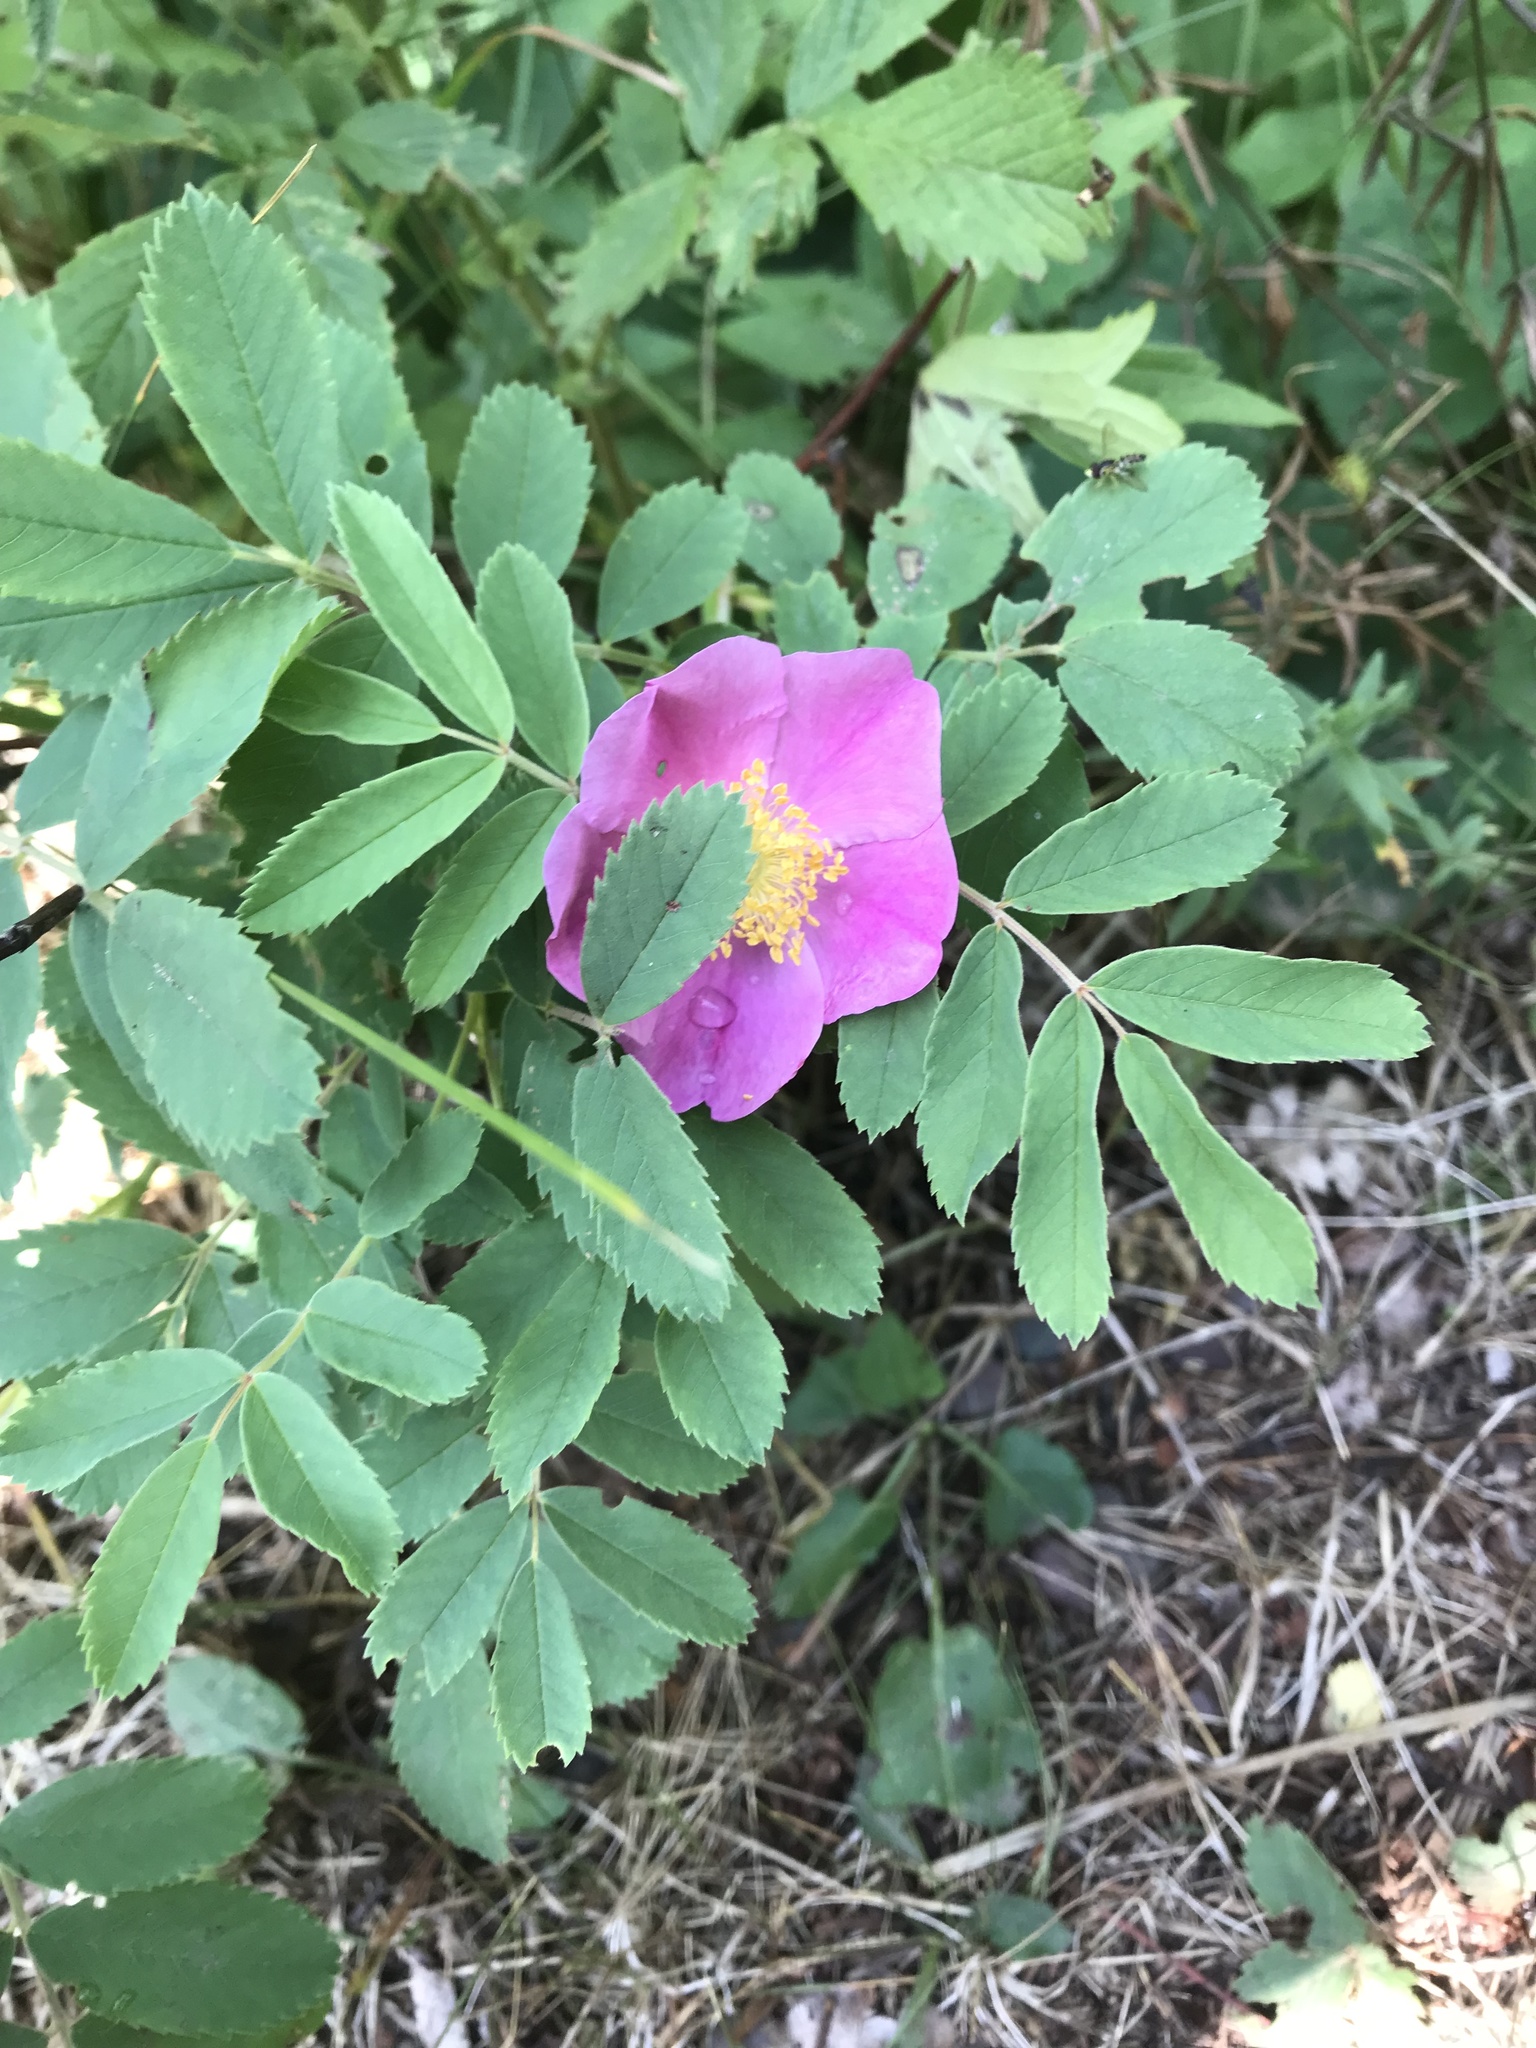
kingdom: Plantae
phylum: Tracheophyta
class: Magnoliopsida
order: Rosales
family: Rosaceae
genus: Rosa
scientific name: Rosa acicularis
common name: Prickly rose
